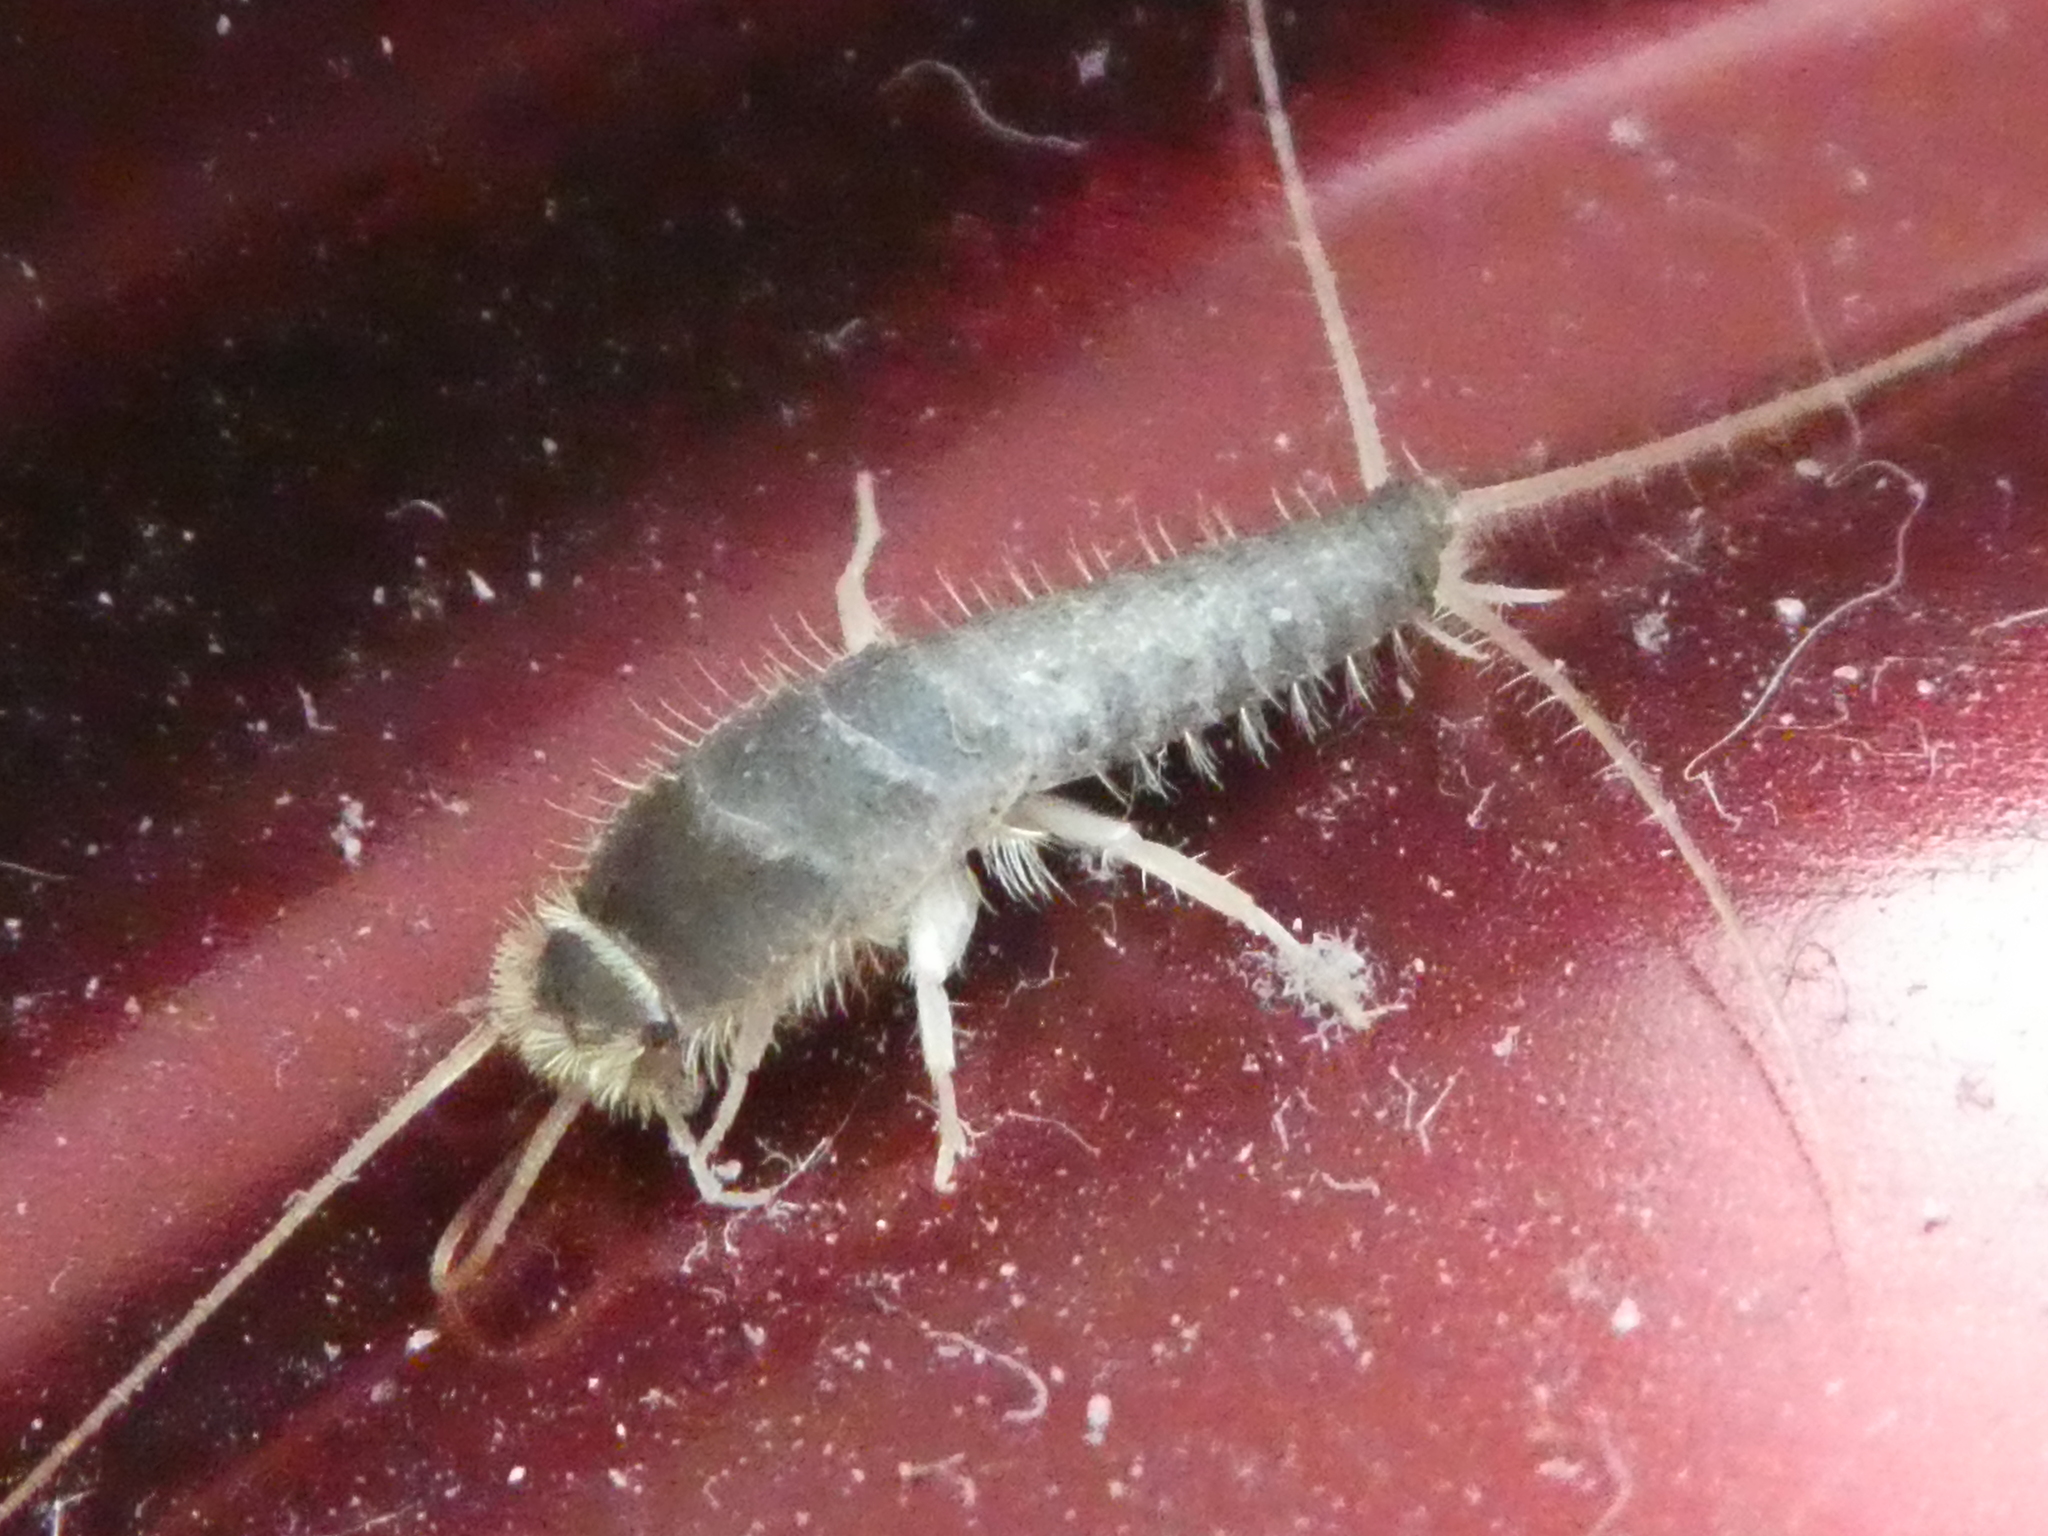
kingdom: Animalia
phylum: Arthropoda
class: Insecta
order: Zygentoma
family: Lepismatidae
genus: Ctenolepisma
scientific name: Ctenolepisma longicaudatum
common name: Silverfish
